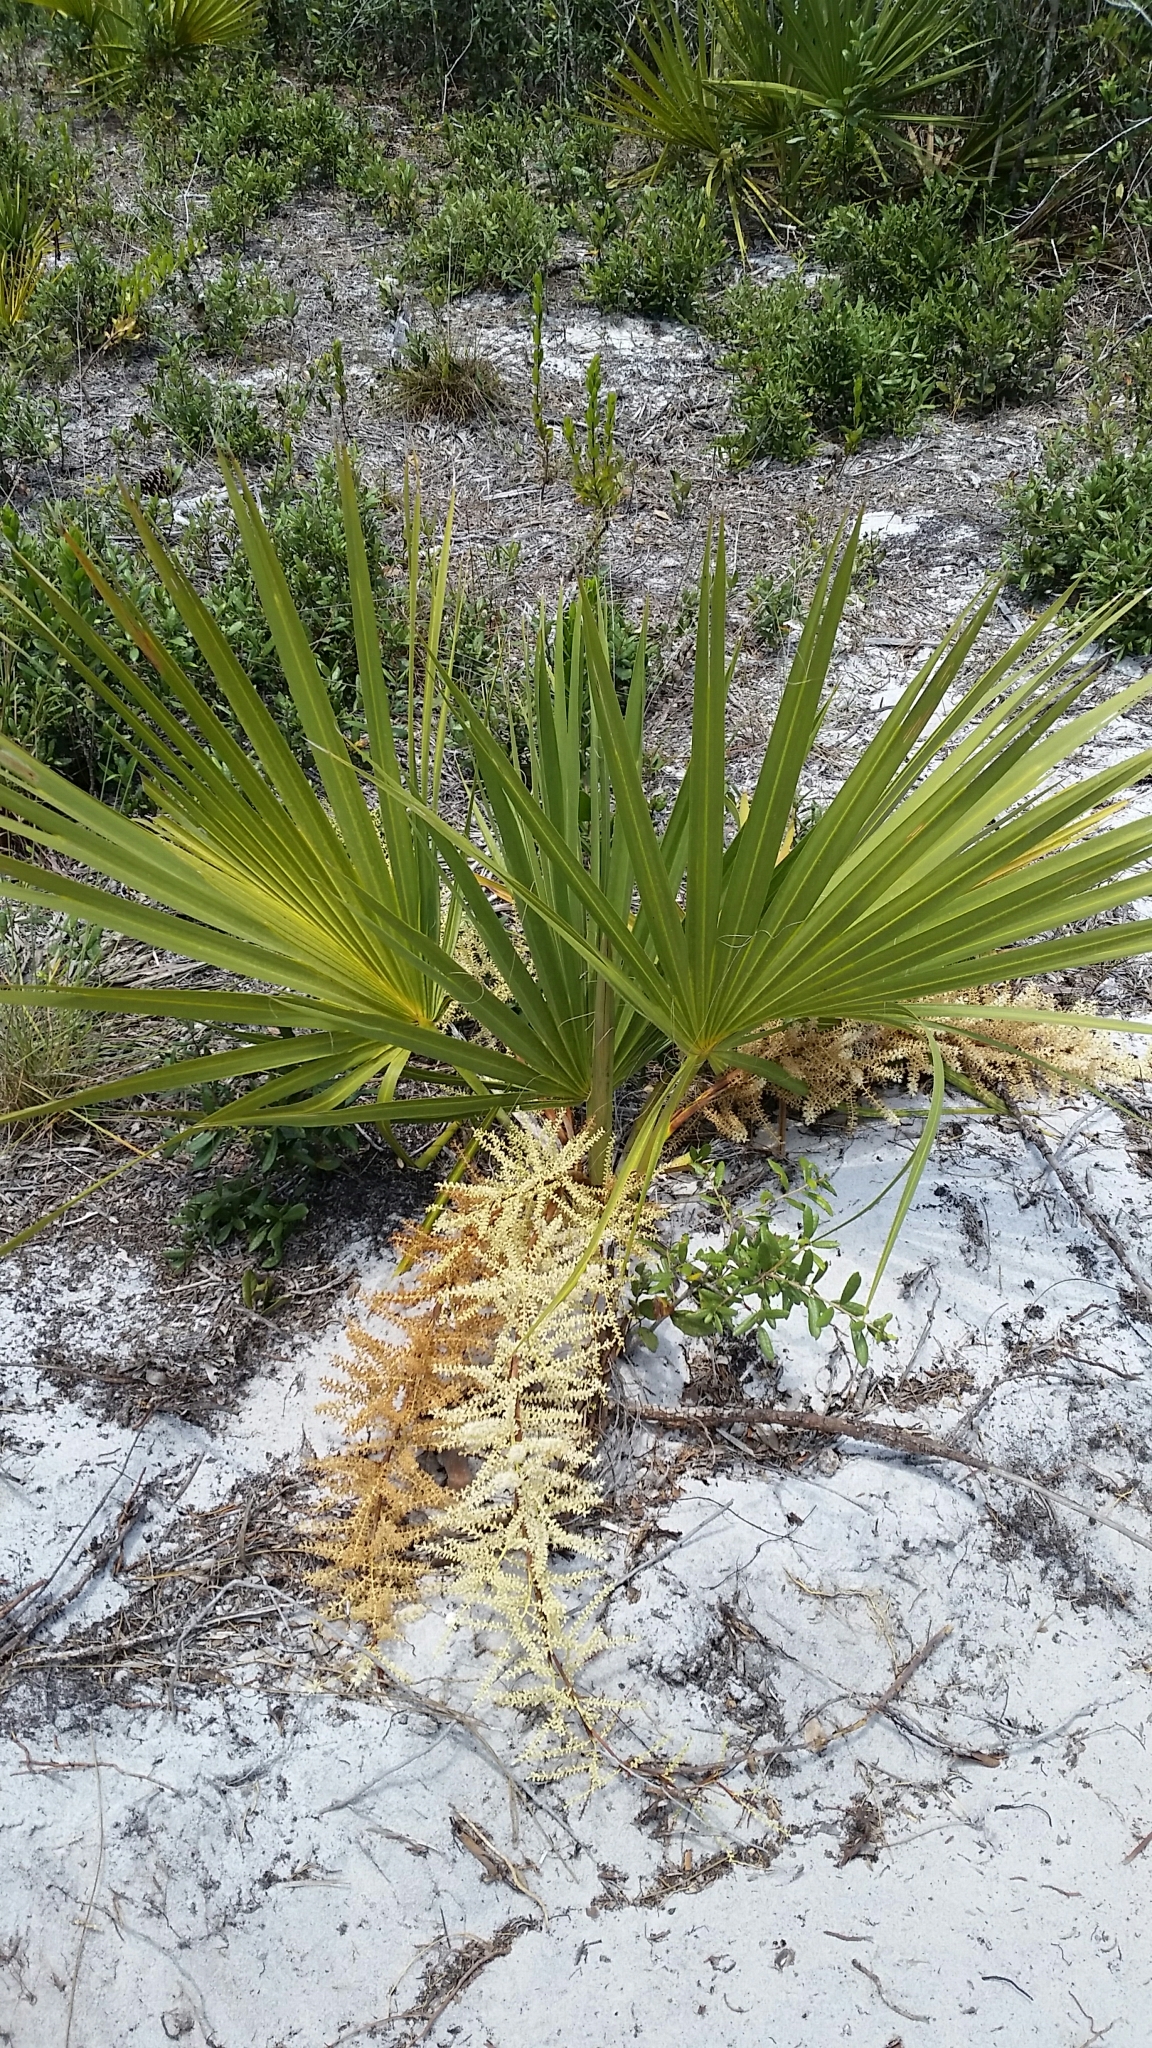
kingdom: Plantae
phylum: Tracheophyta
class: Liliopsida
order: Arecales
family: Arecaceae
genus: Sabal
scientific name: Sabal etonia
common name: Dwarf palmetto
